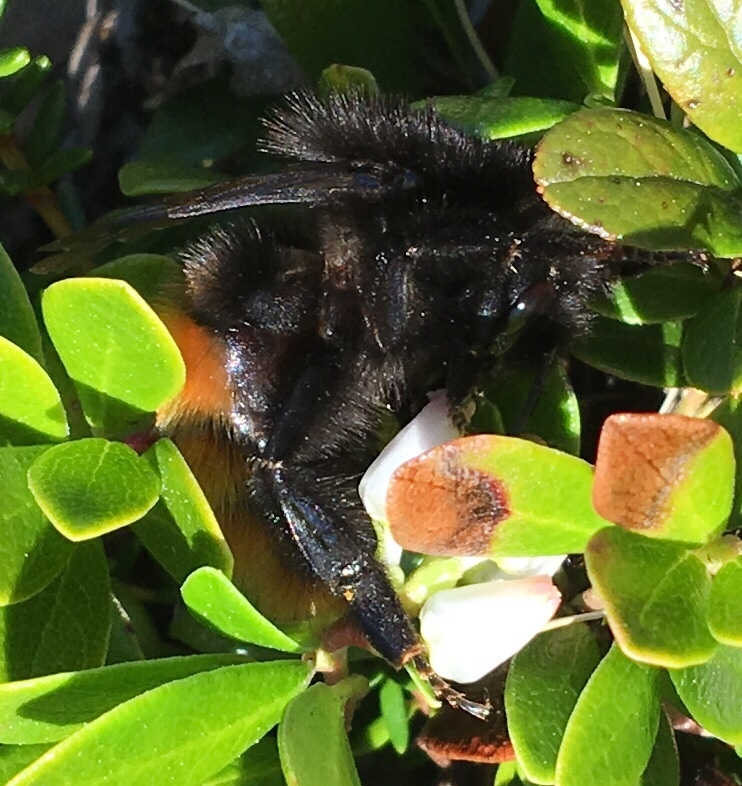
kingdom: Animalia
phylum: Arthropoda
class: Insecta
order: Hymenoptera
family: Apidae
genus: Bombus
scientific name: Bombus alpinus
